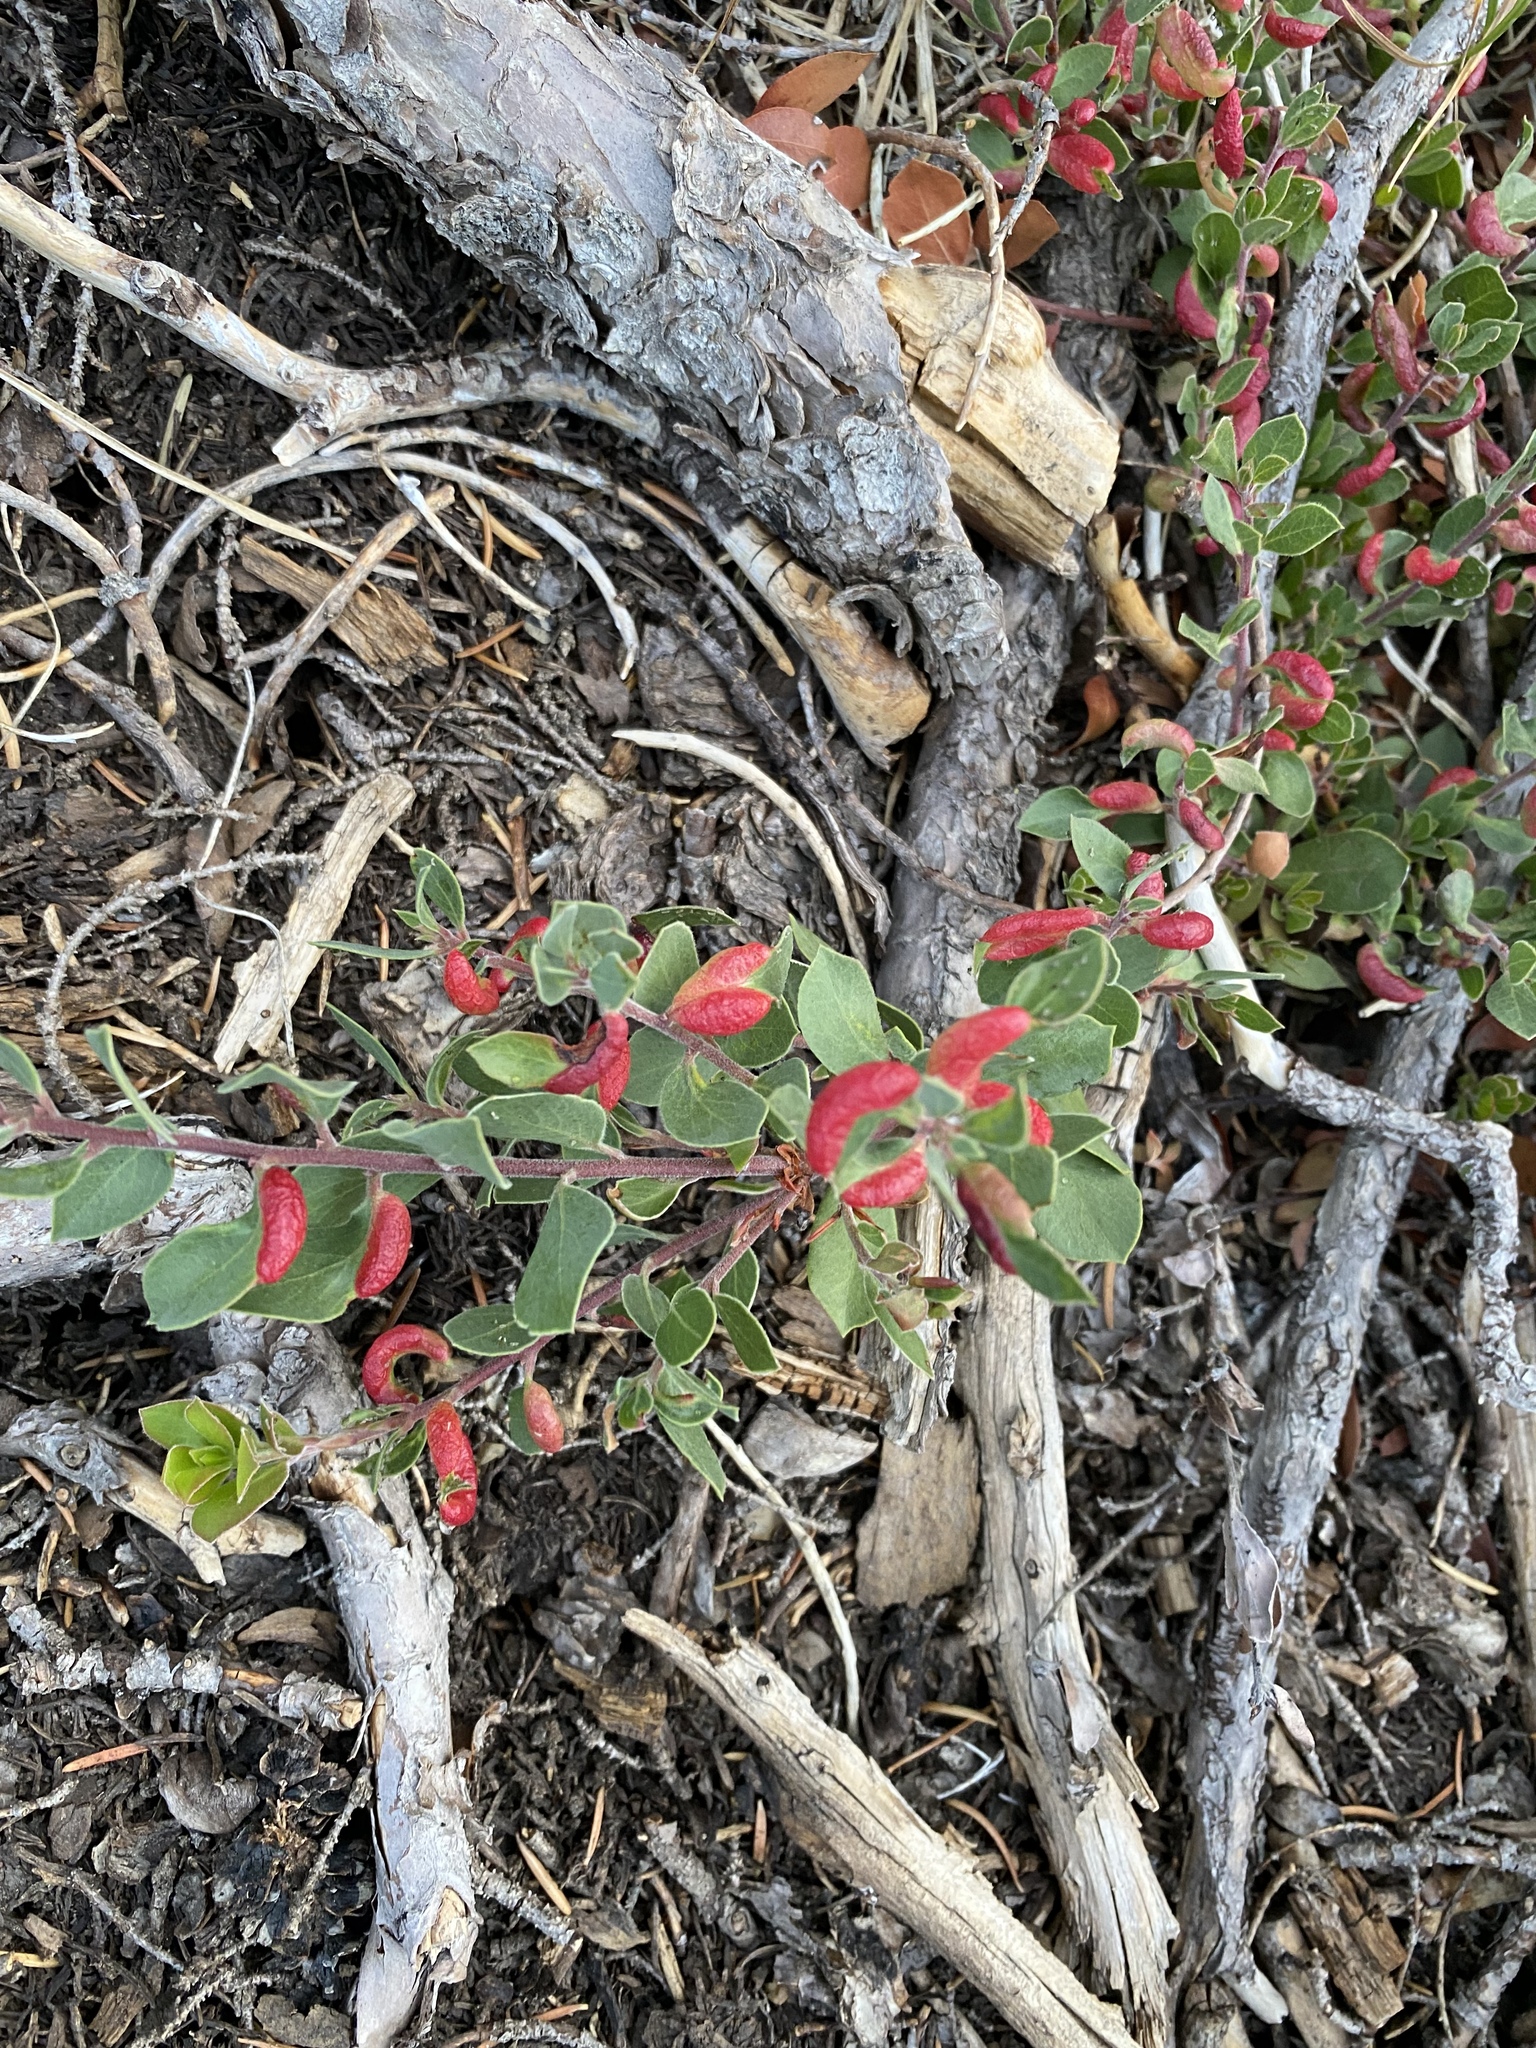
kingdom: Animalia
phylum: Arthropoda
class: Insecta
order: Hemiptera
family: Aphididae
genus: Tamalia
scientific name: Tamalia coweni
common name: Manzanita leafgall aphid
